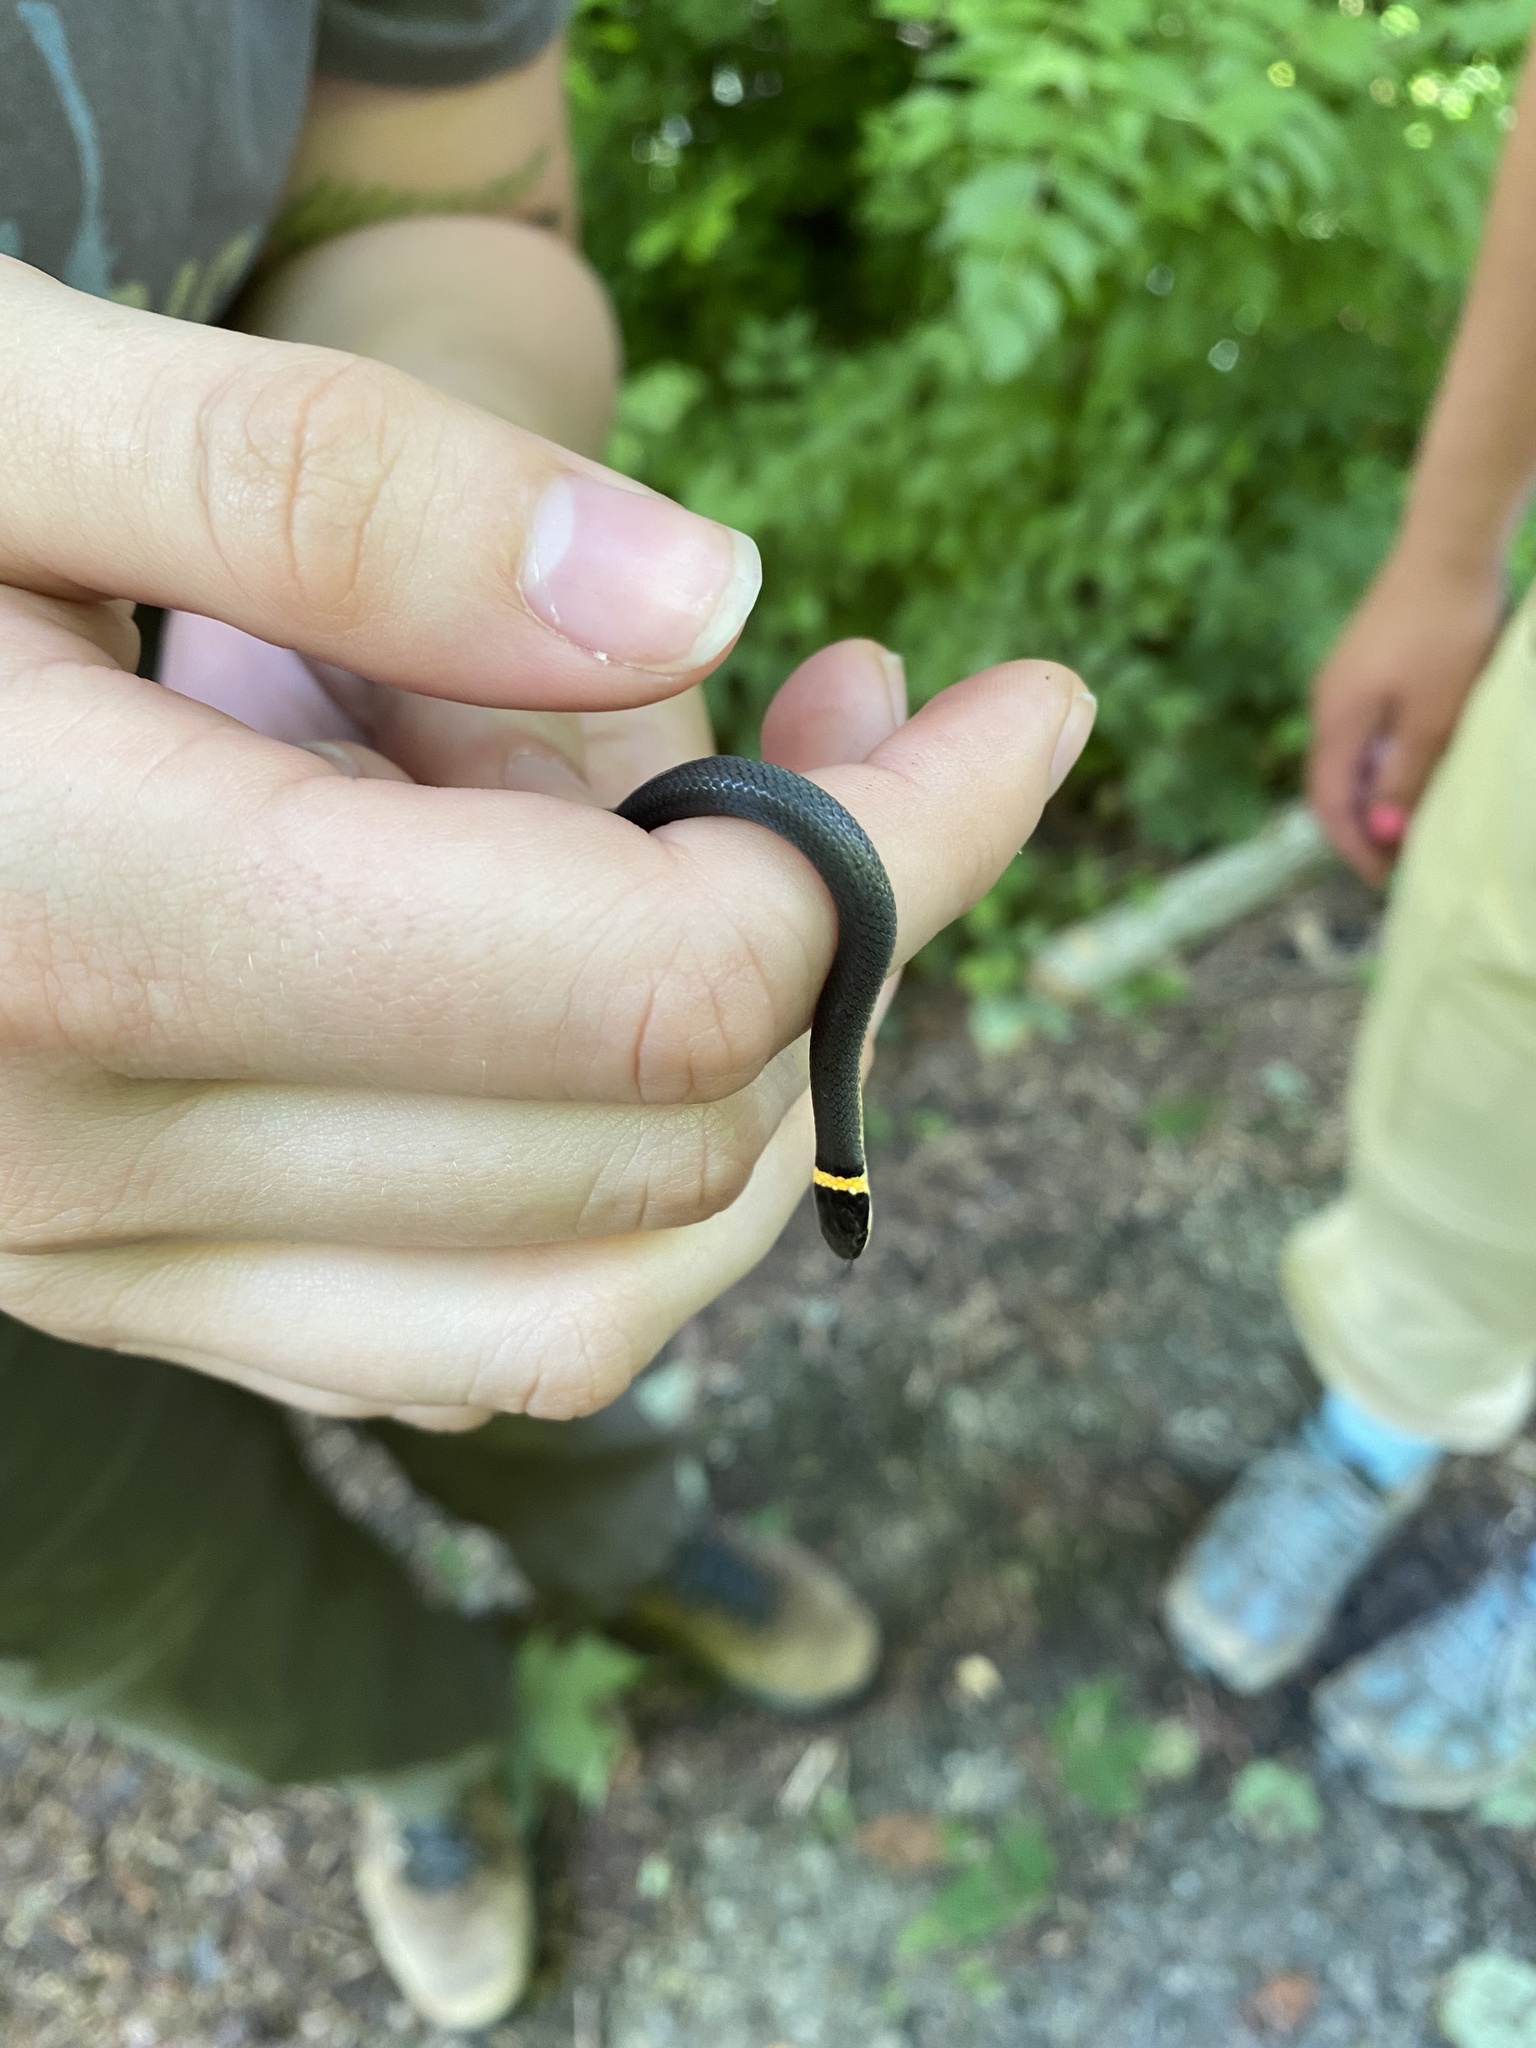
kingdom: Animalia
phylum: Chordata
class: Squamata
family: Colubridae
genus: Diadophis
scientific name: Diadophis punctatus
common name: Ringneck snake
